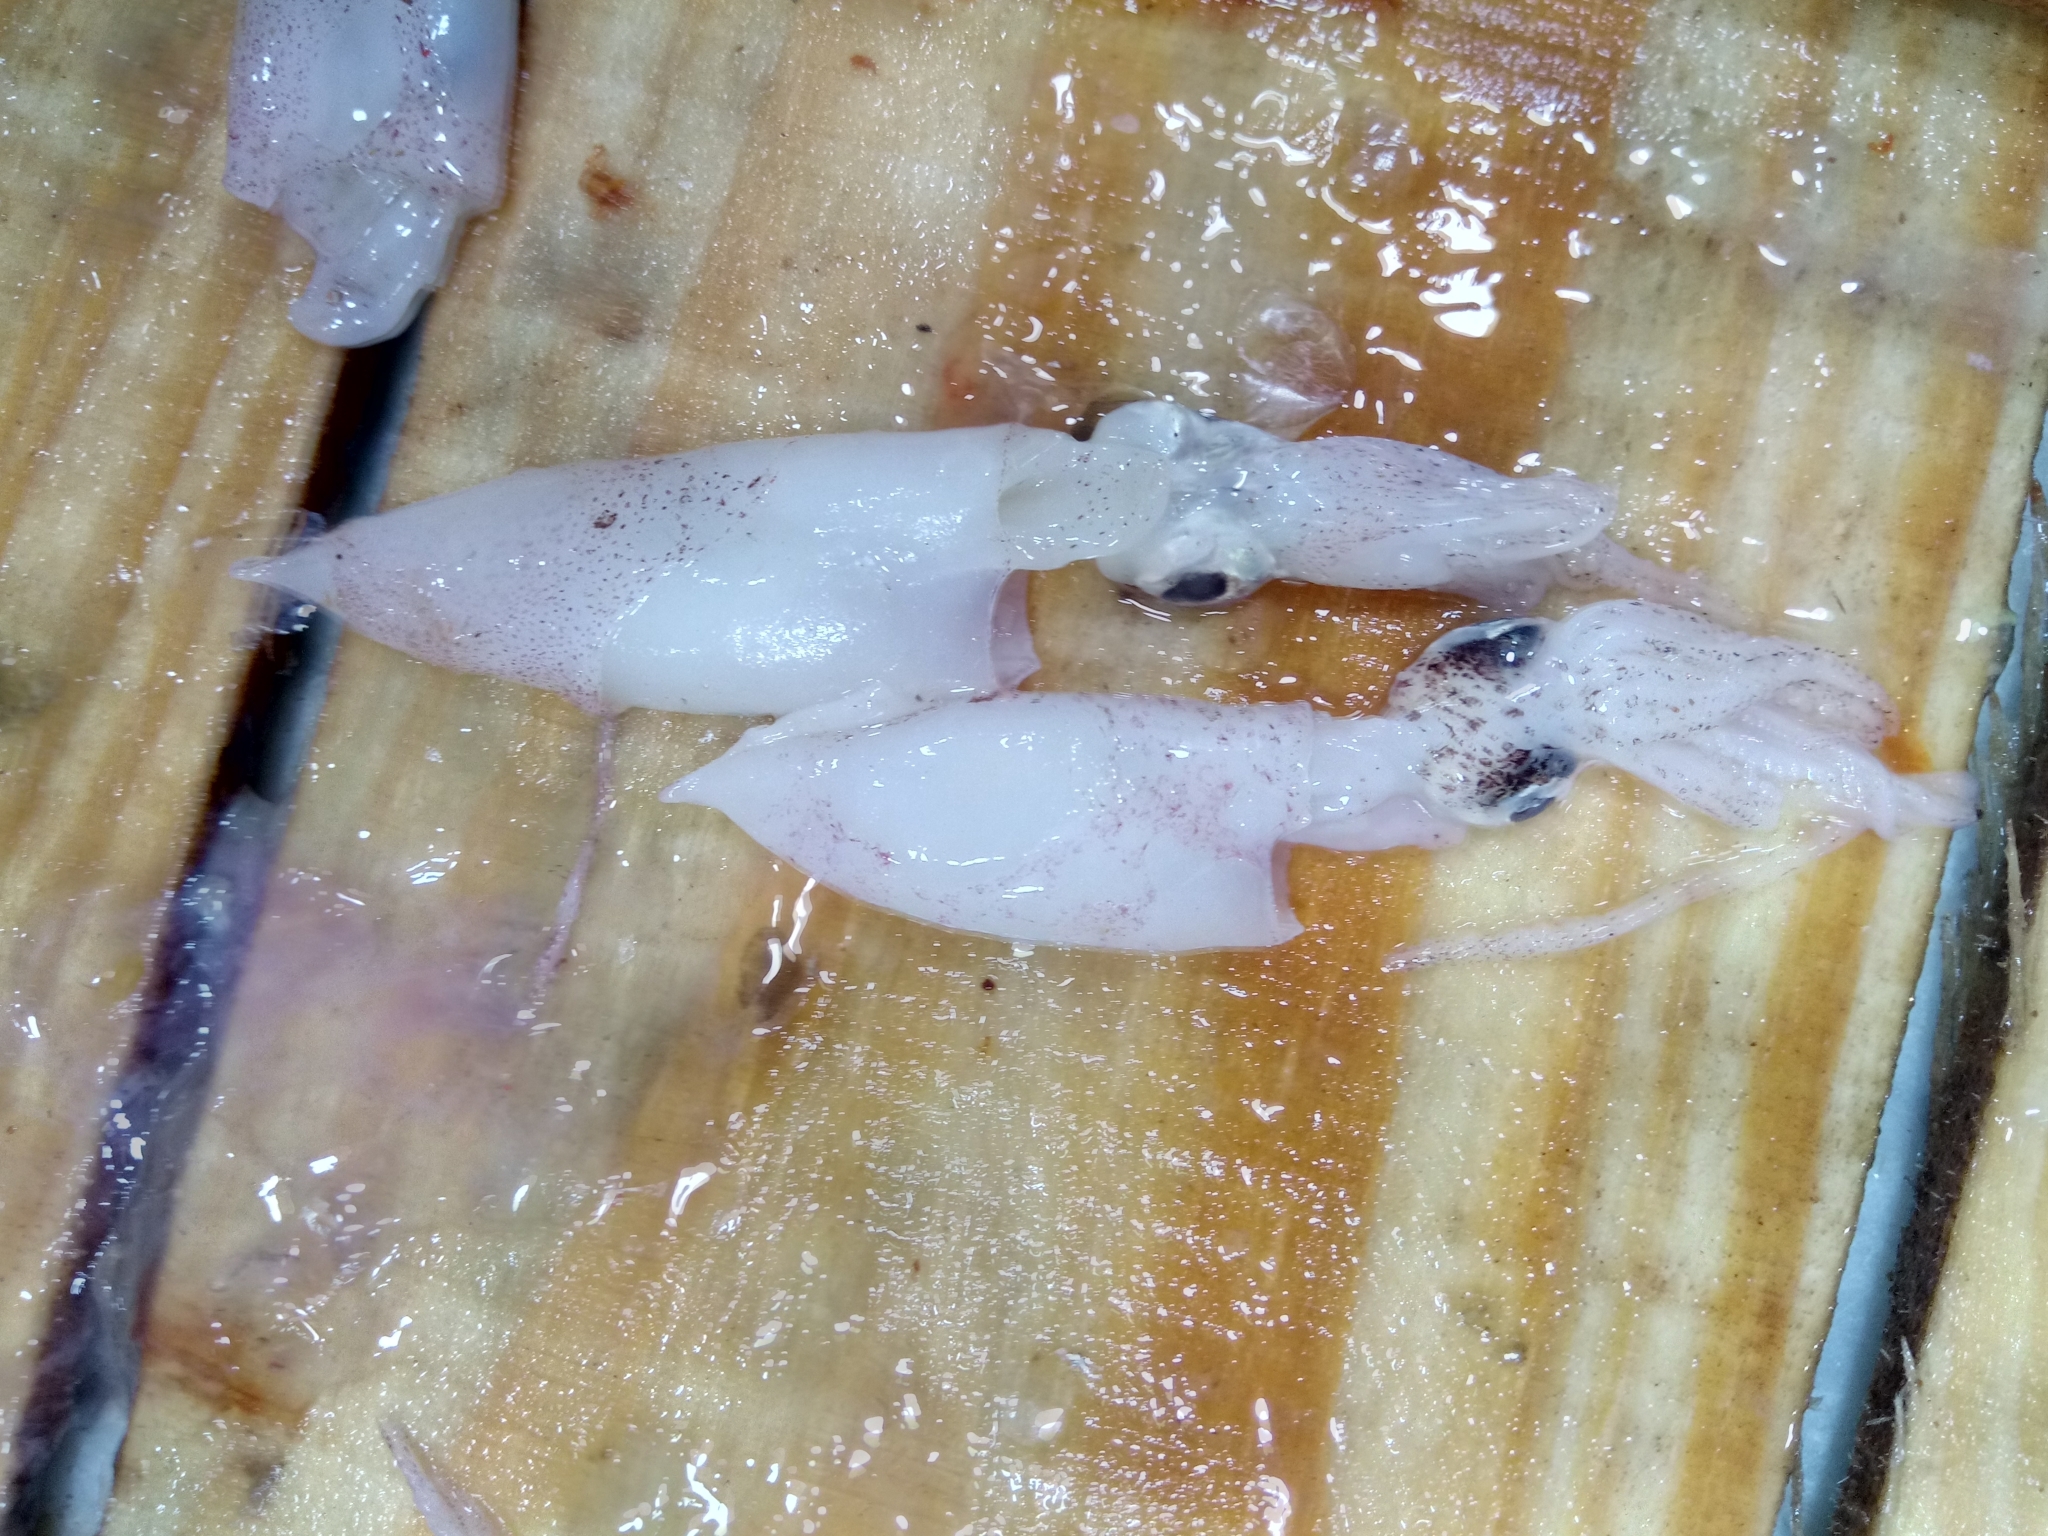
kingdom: Animalia
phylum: Mollusca
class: Cephalopoda
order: Myopsida
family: Loliginidae
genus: Alloteuthis
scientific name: Alloteuthis subulata
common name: European common squid
